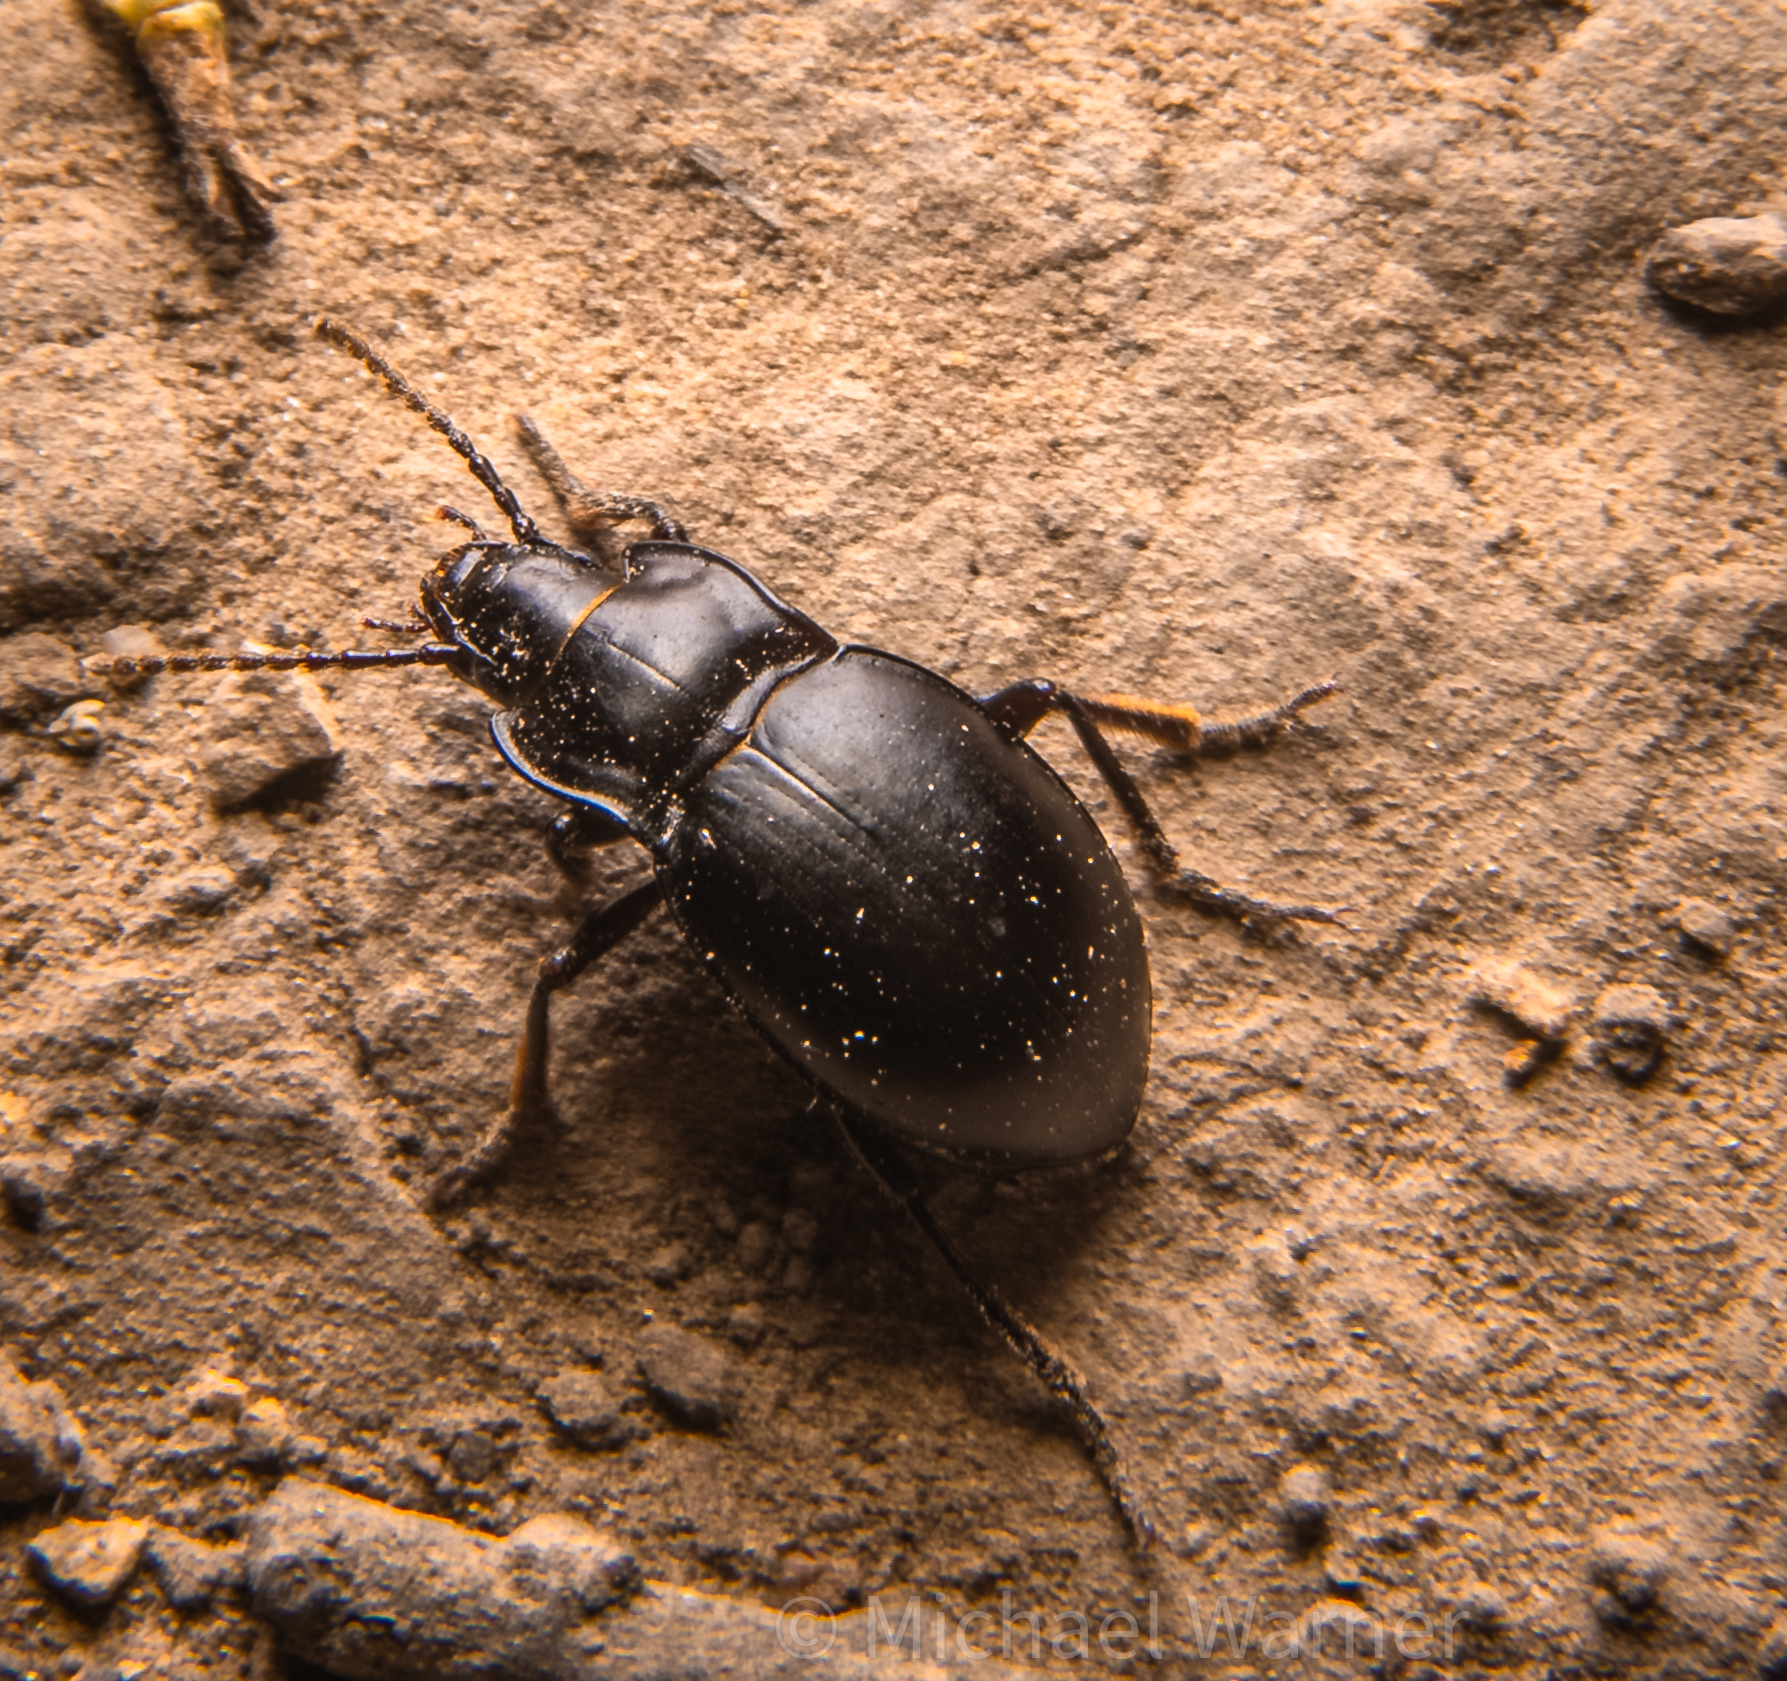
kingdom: Animalia
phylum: Arthropoda
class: Insecta
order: Coleoptera
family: Carabidae
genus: Metrius
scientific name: Metrius contractus
